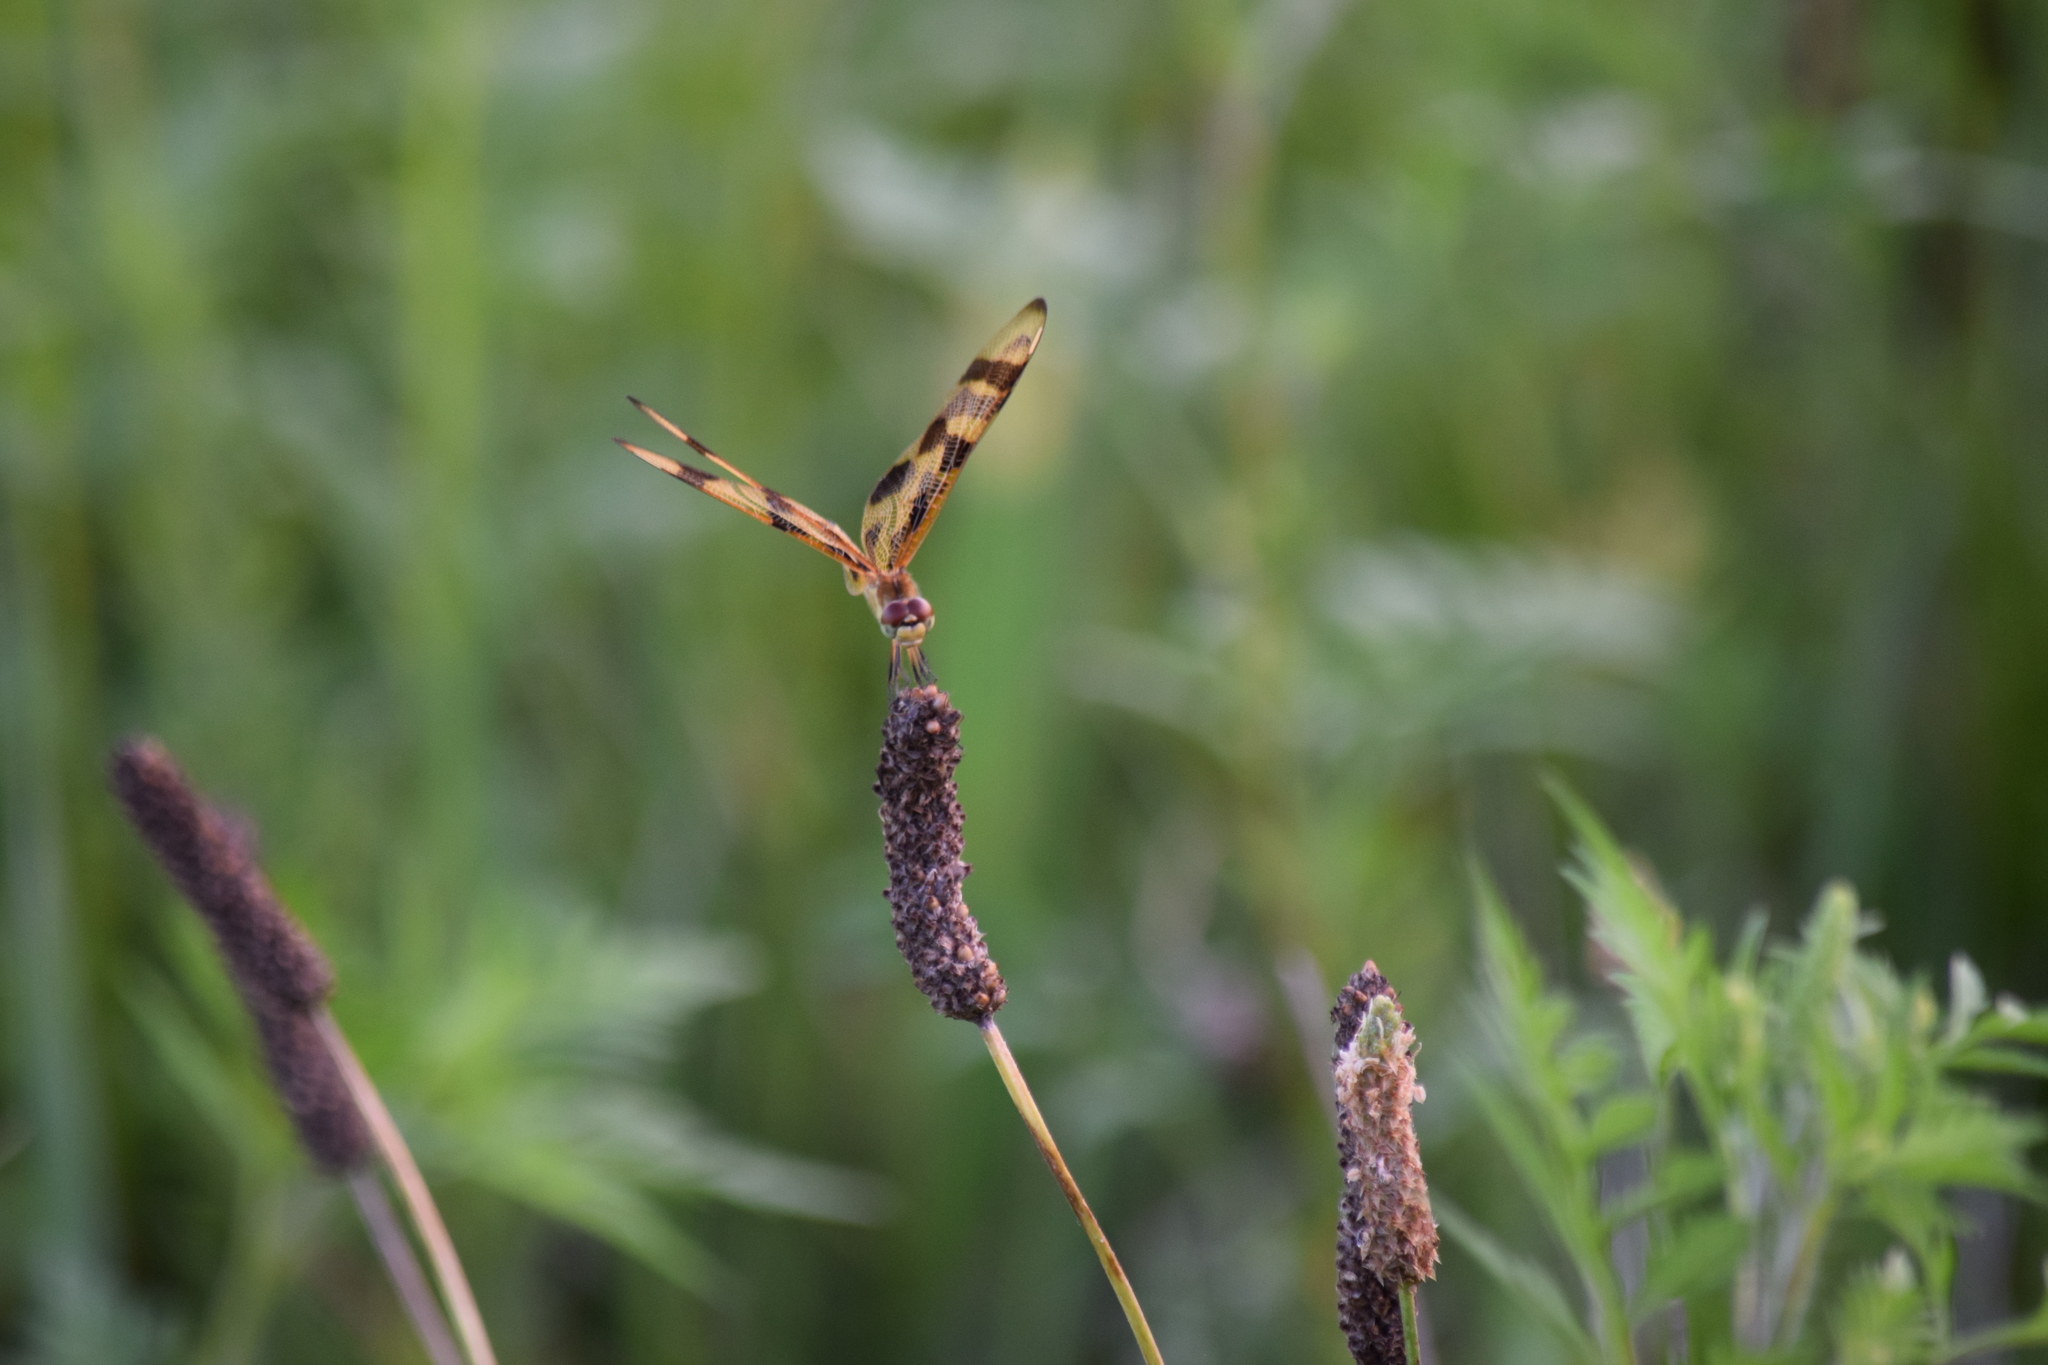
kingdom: Animalia
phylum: Arthropoda
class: Insecta
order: Odonata
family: Libellulidae
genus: Celithemis
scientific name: Celithemis eponina
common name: Halloween pennant
